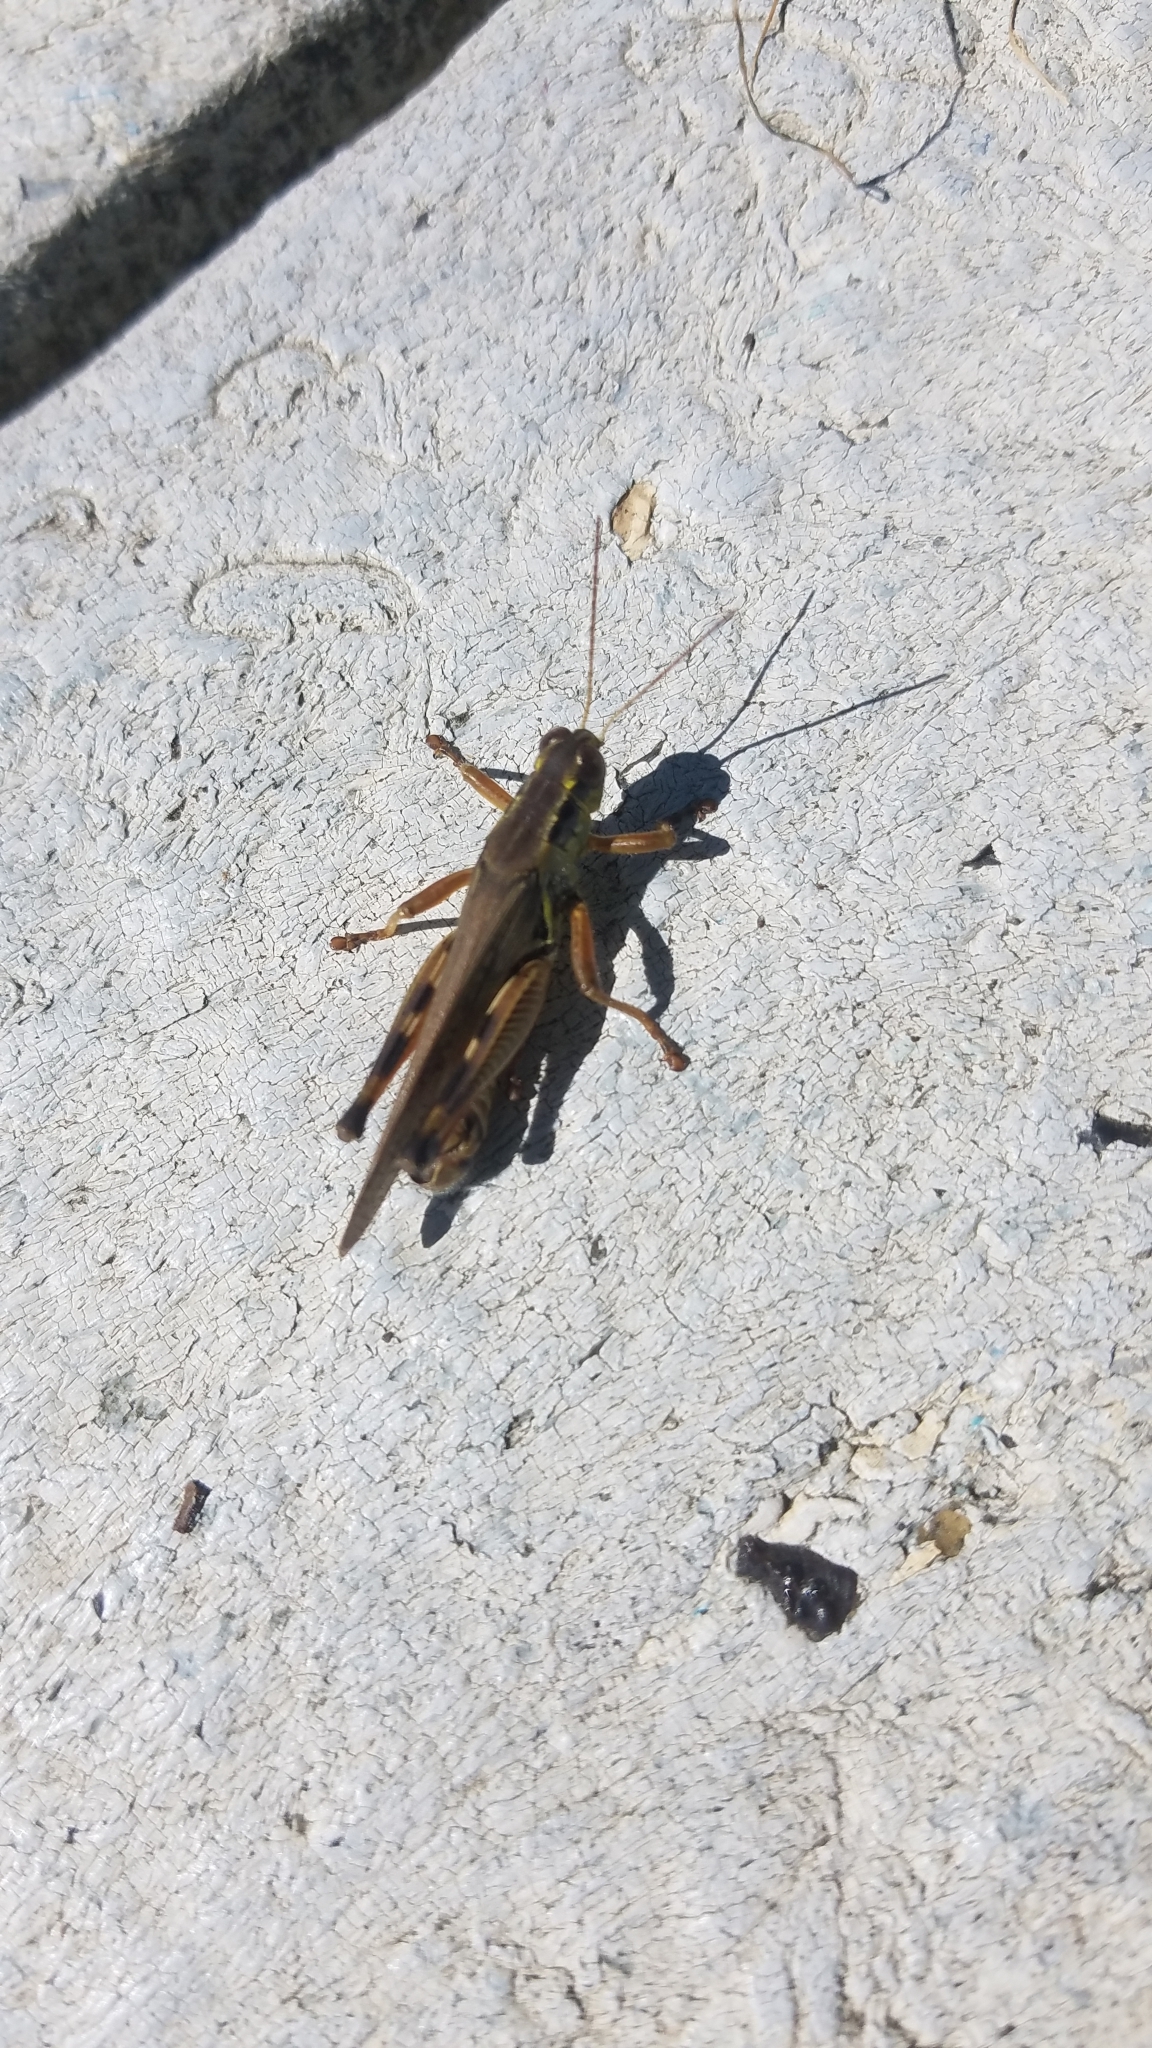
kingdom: Animalia
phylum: Arthropoda
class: Insecta
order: Orthoptera
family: Acrididae
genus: Melanoplus
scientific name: Melanoplus femurrubrum
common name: Red-legged grasshopper
